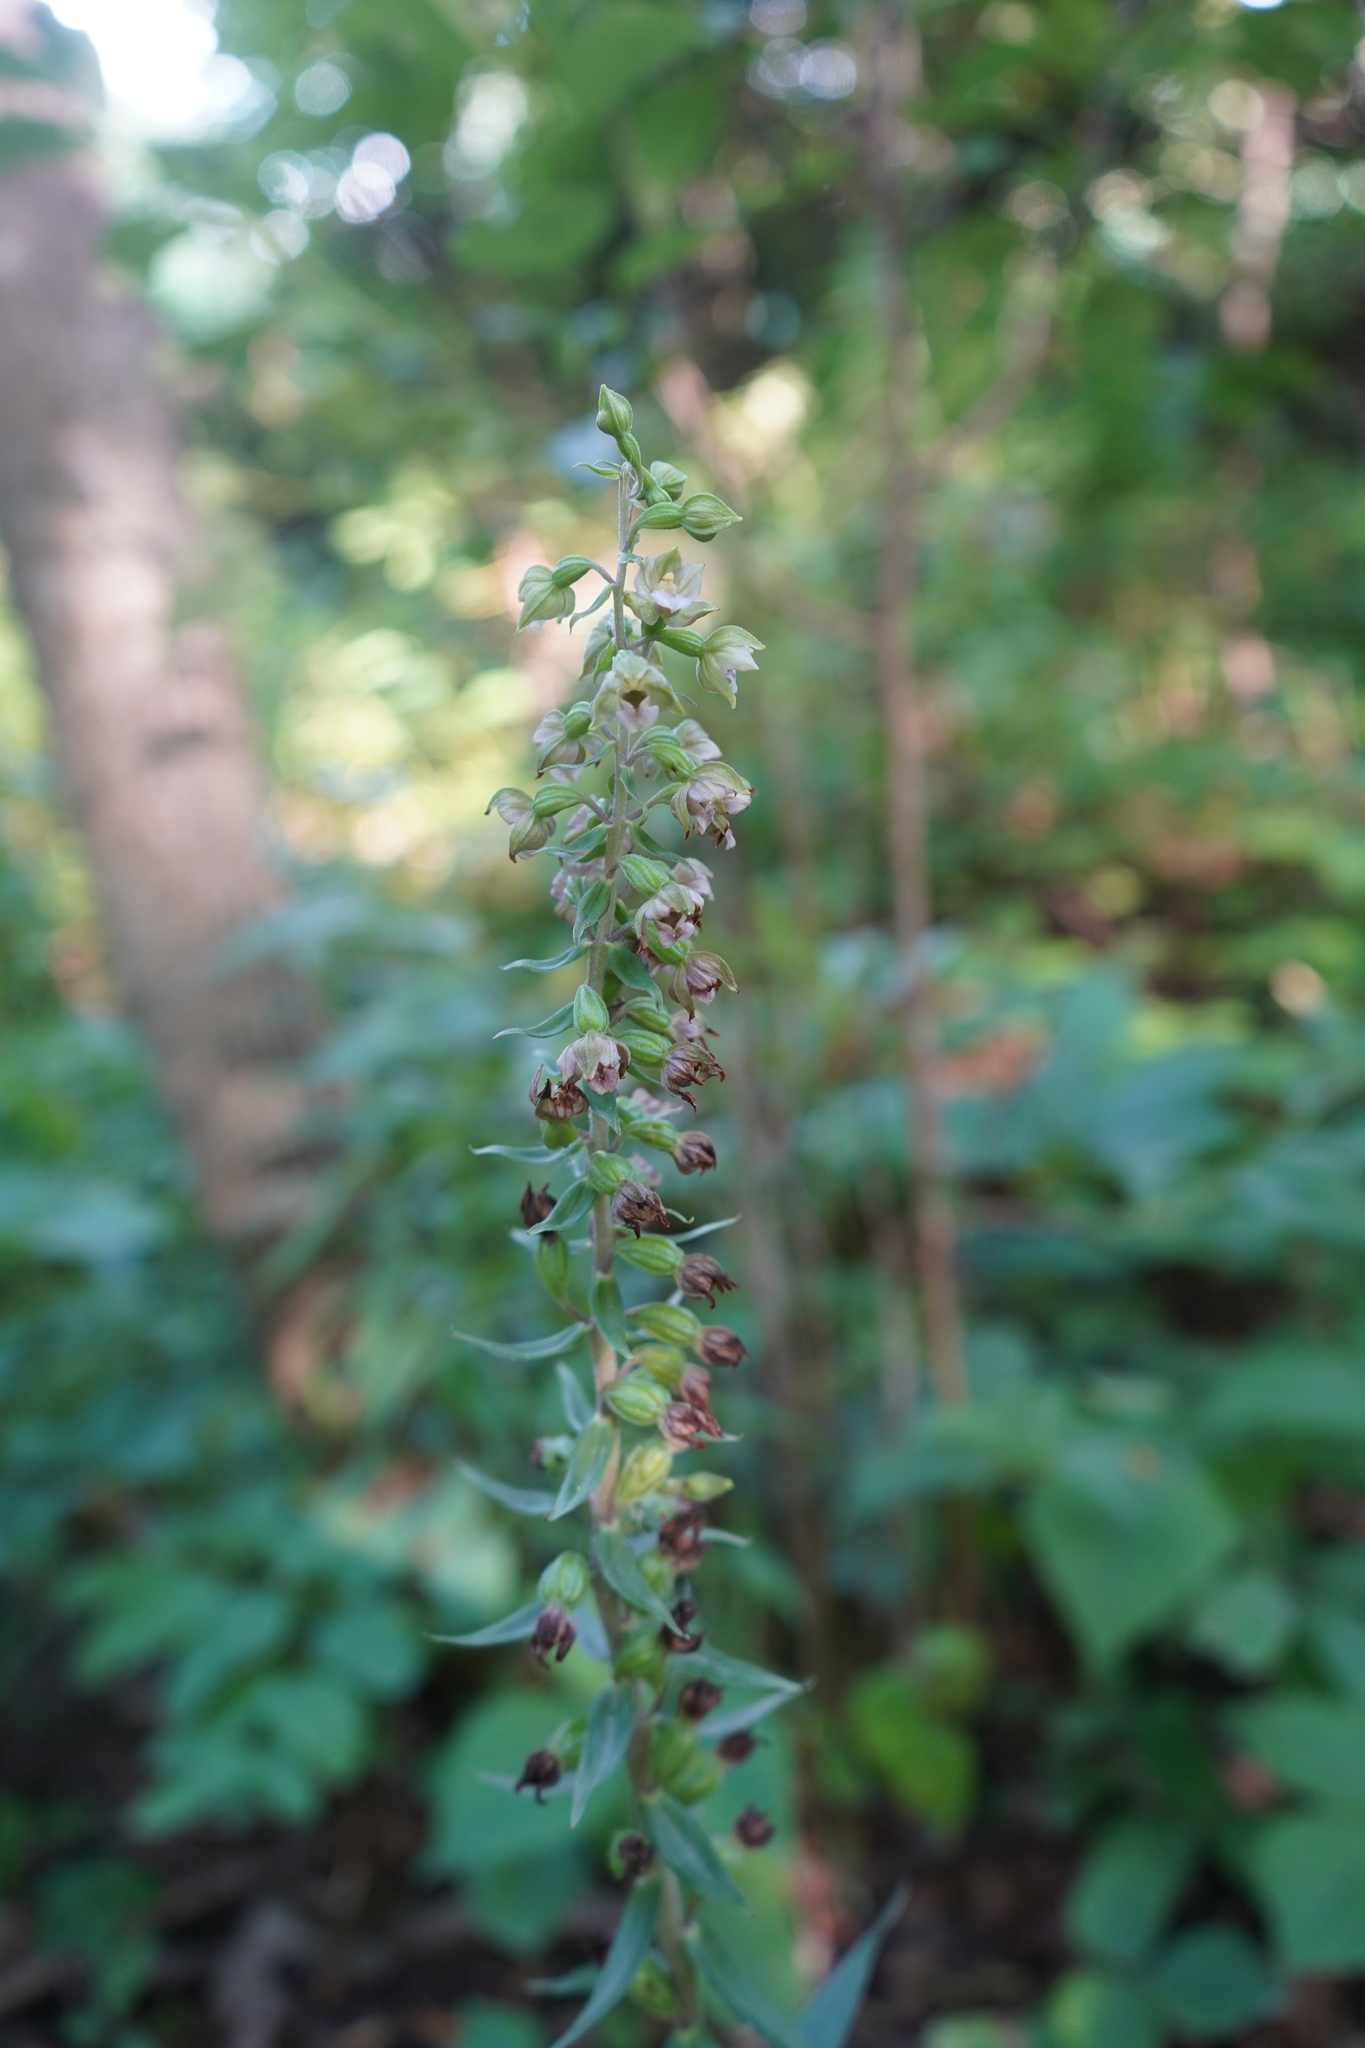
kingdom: Plantae
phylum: Tracheophyta
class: Liliopsida
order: Asparagales
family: Orchidaceae
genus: Epipactis
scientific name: Epipactis helleborine
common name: Broad-leaved helleborine
